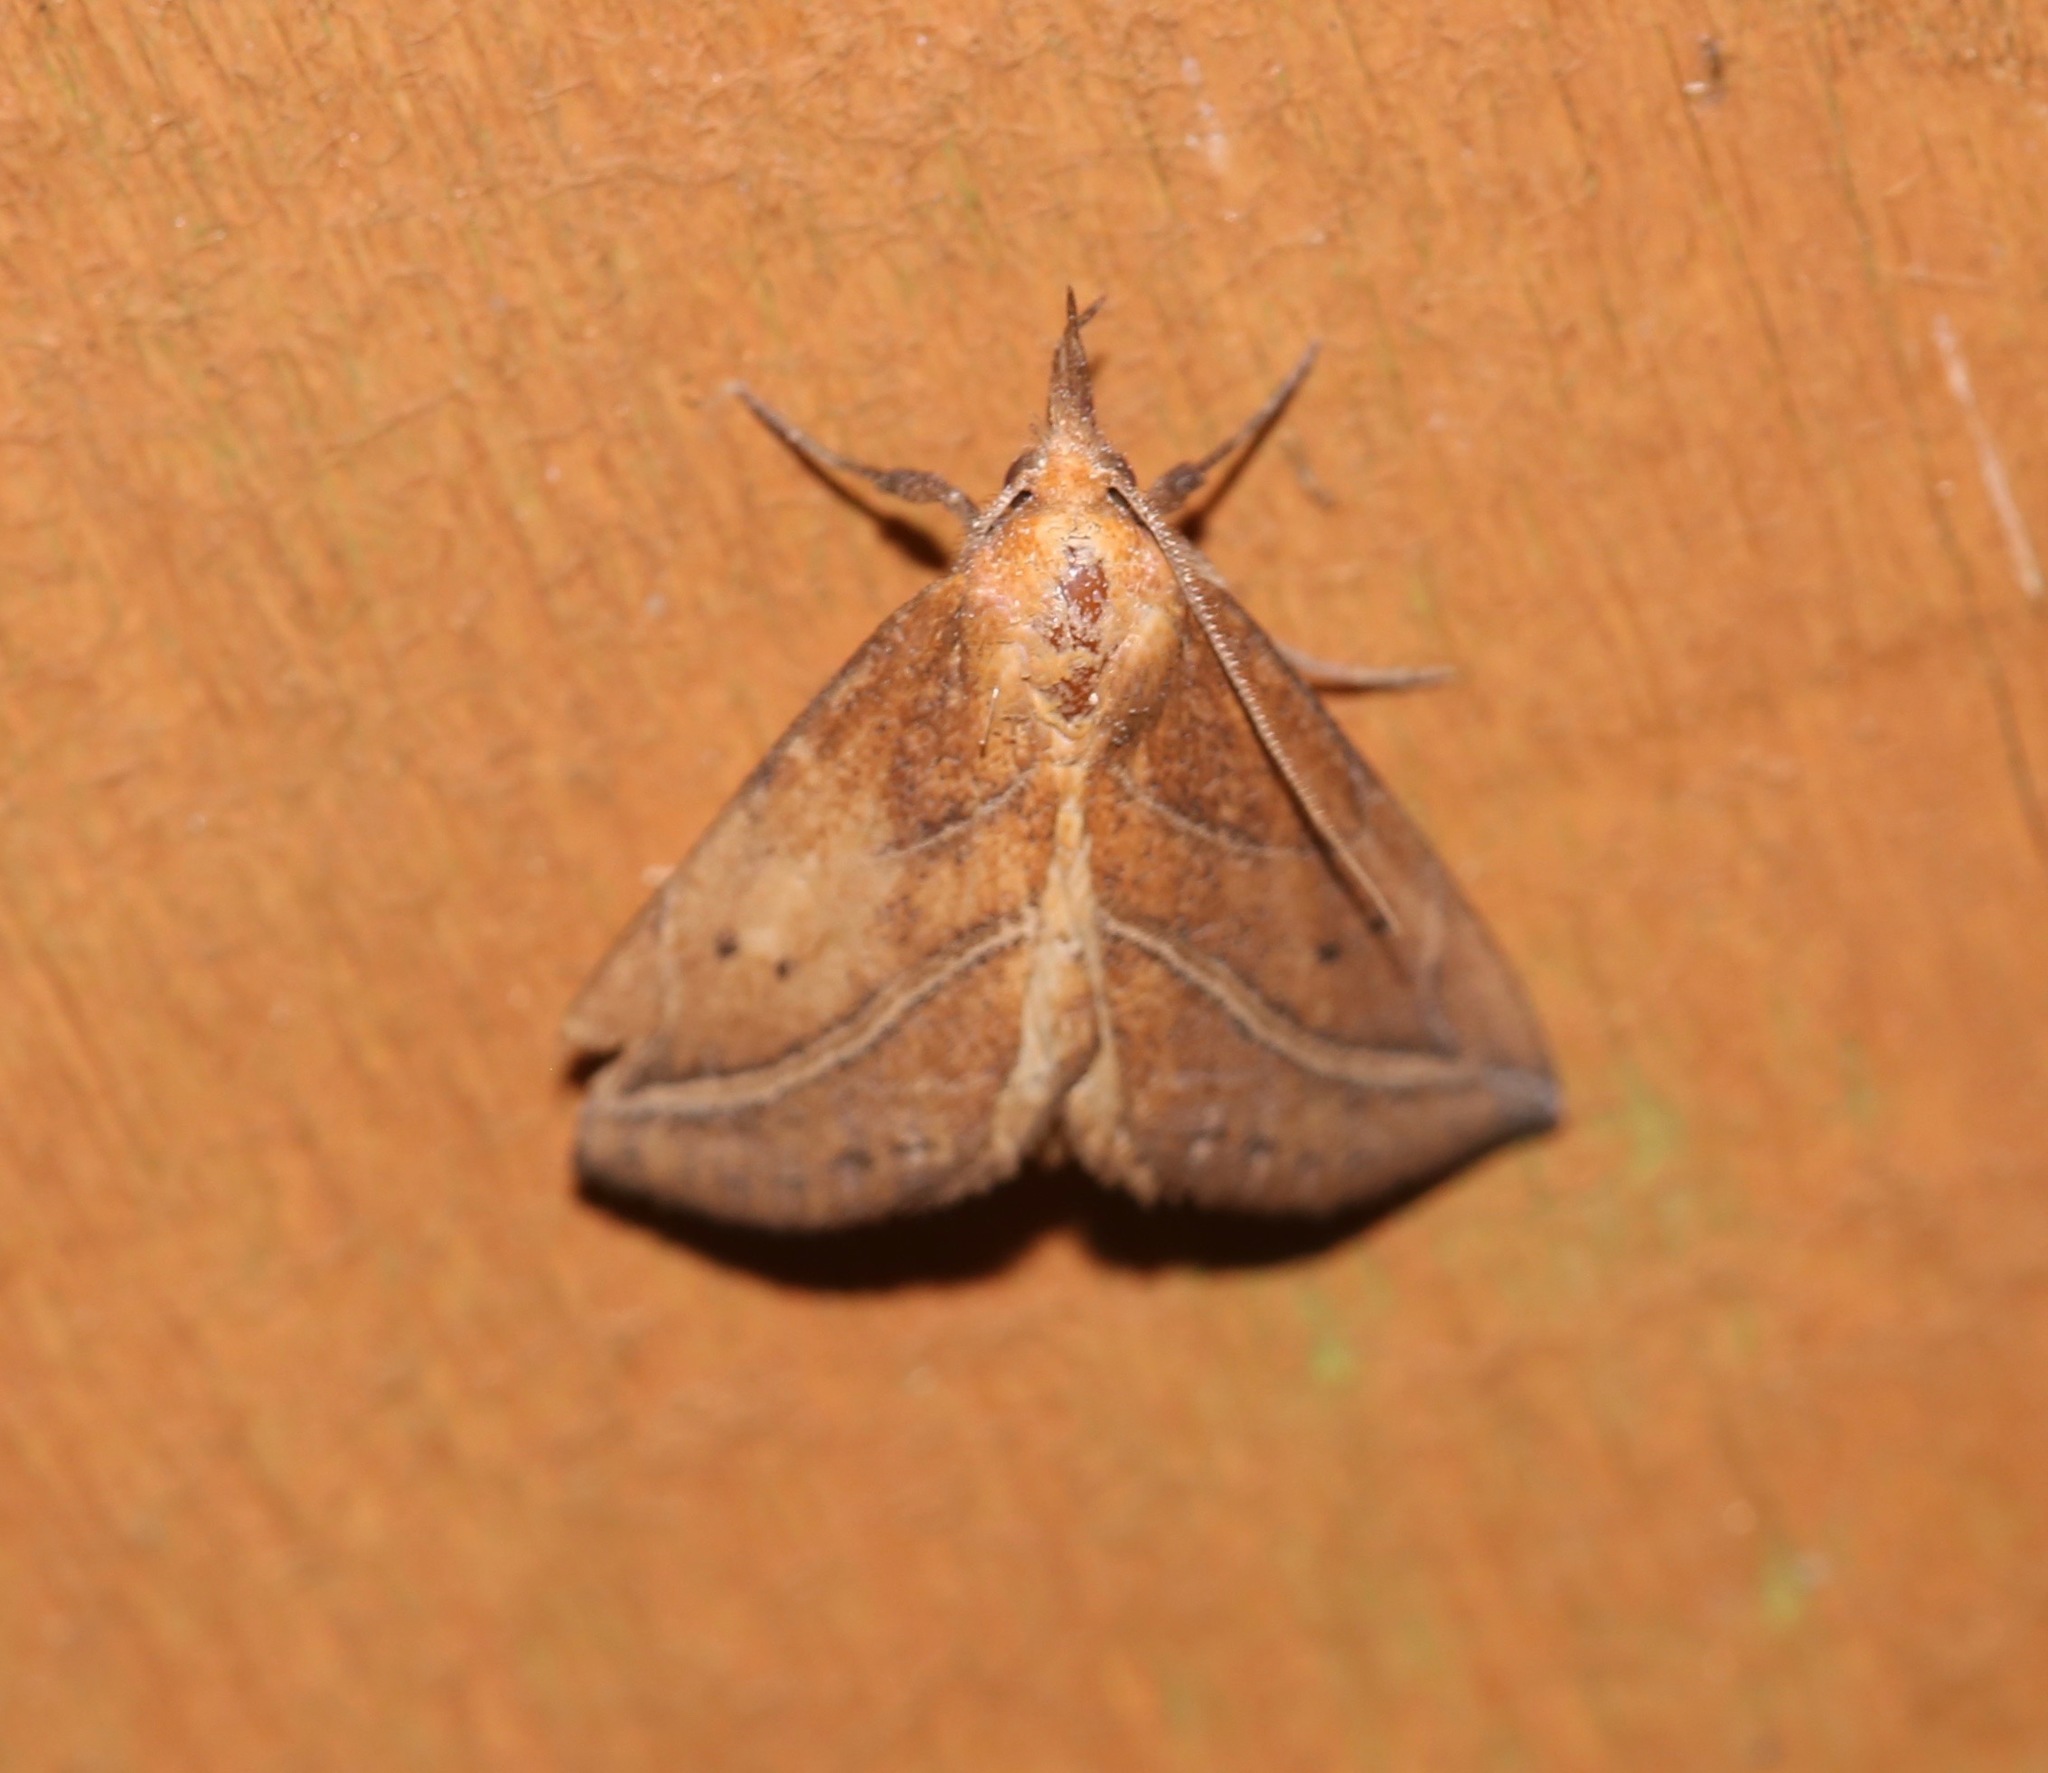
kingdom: Animalia
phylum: Arthropoda
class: Insecta
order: Lepidoptera
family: Erebidae
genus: Phyprosopus
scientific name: Phyprosopus callitrichoides
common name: Curved-lined owlet
